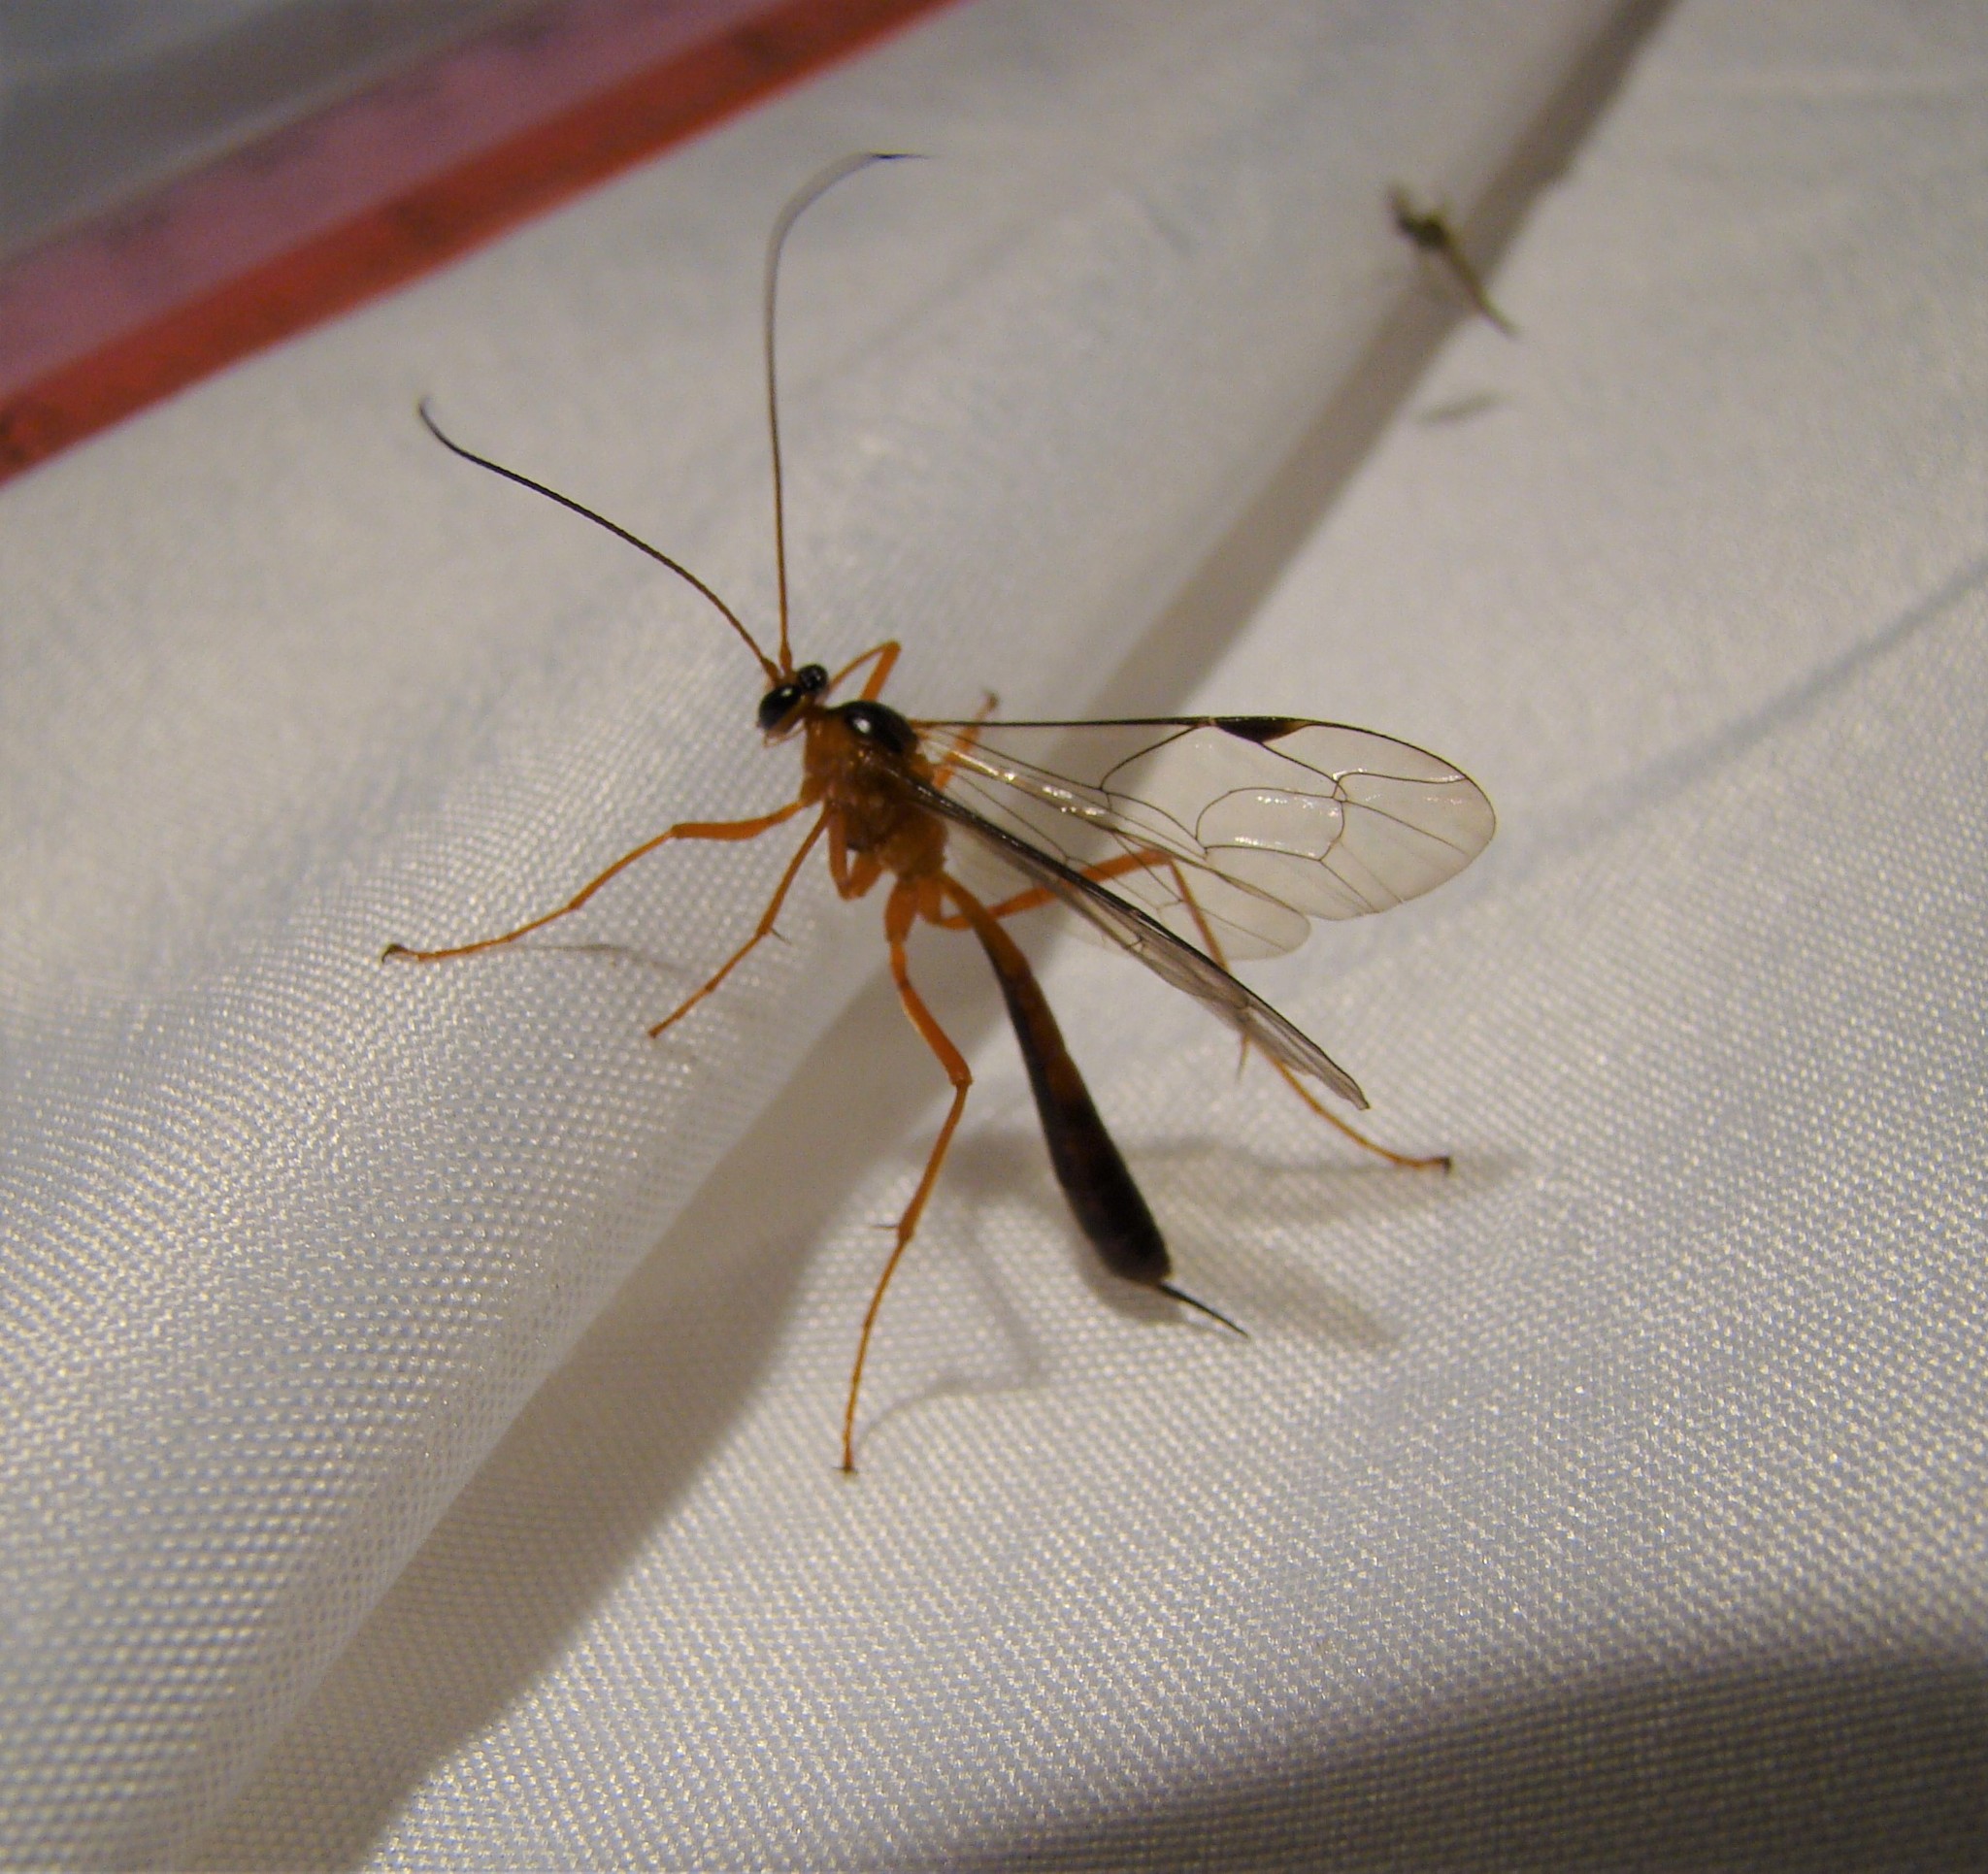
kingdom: Animalia
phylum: Arthropoda
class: Insecta
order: Hymenoptera
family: Ichneumonidae
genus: Netelia
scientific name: Netelia ephippiata
